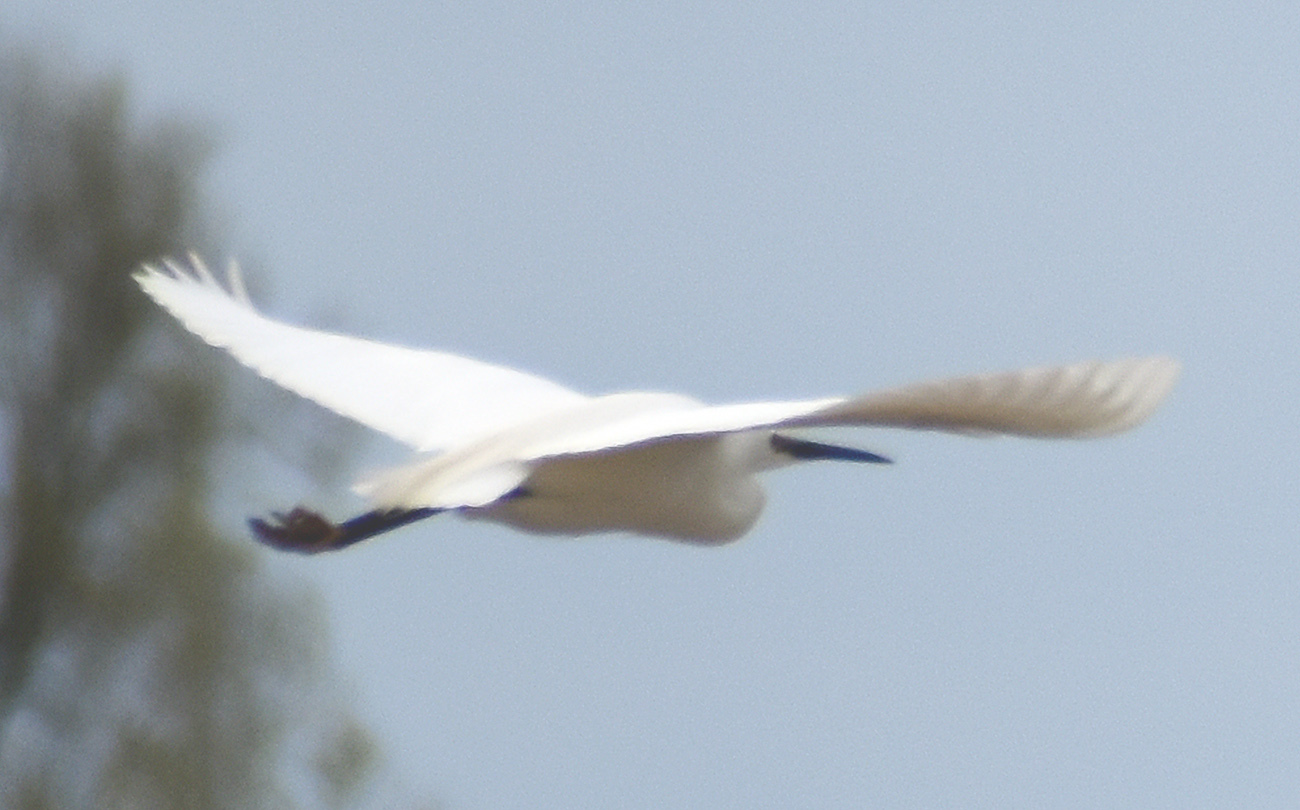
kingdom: Animalia
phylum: Chordata
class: Aves
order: Pelecaniformes
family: Ardeidae
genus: Egretta
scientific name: Egretta garzetta
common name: Little egret
